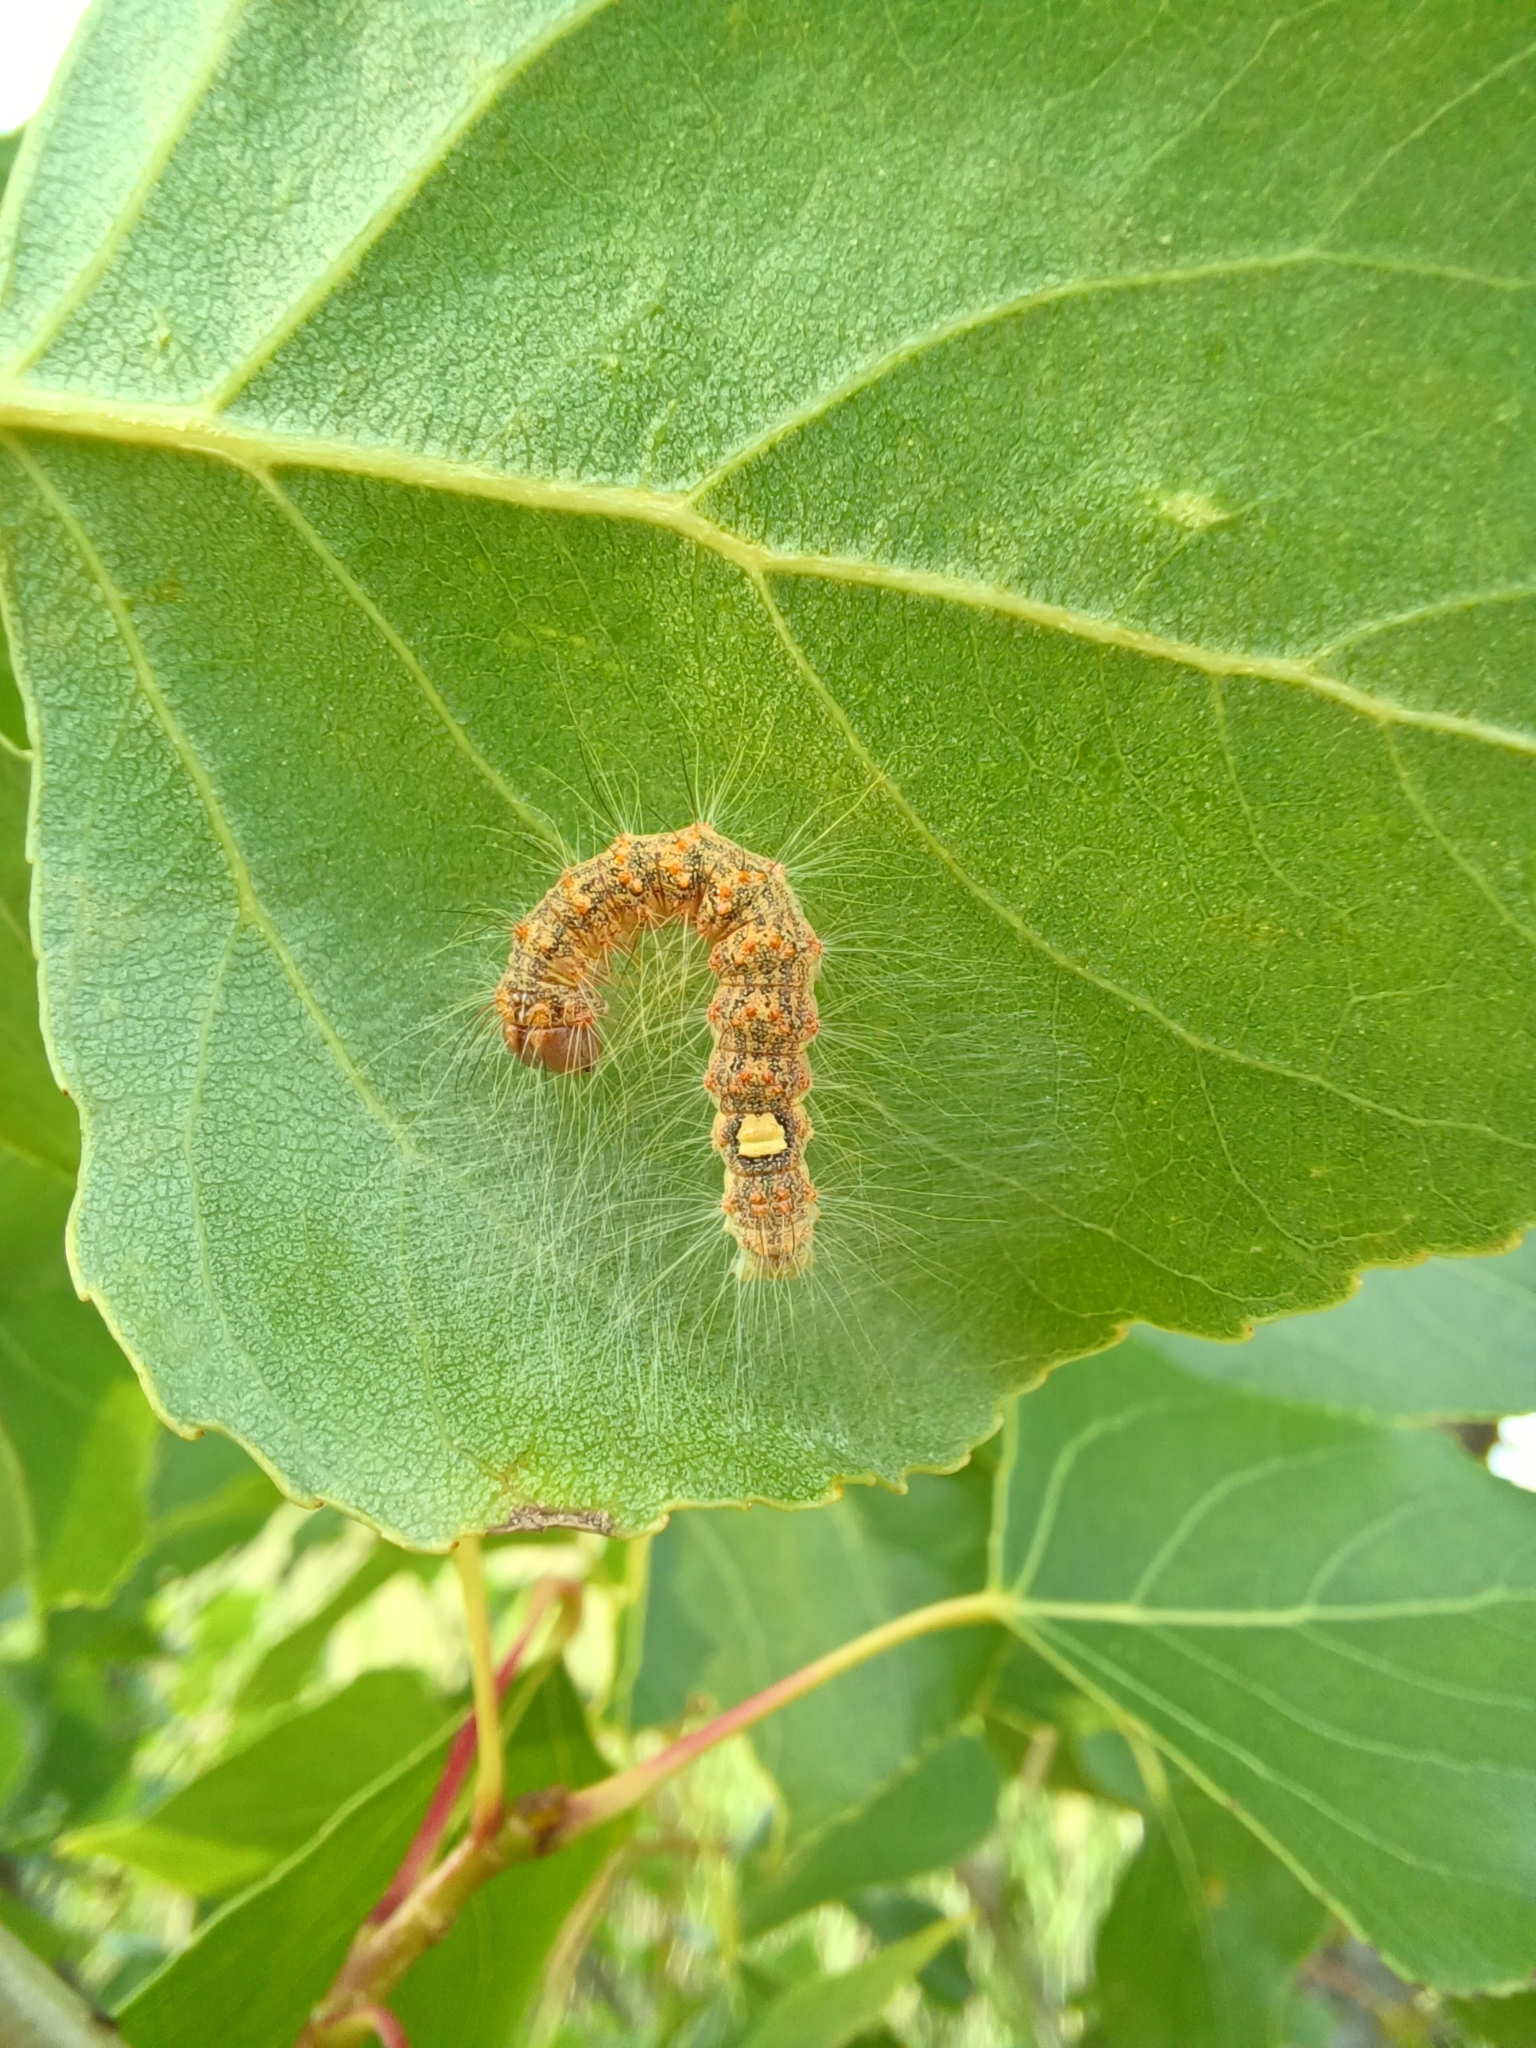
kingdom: Animalia
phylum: Arthropoda
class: Insecta
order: Lepidoptera
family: Noctuidae
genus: Acronicta
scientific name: Acronicta megacephala
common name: Poplar grey
